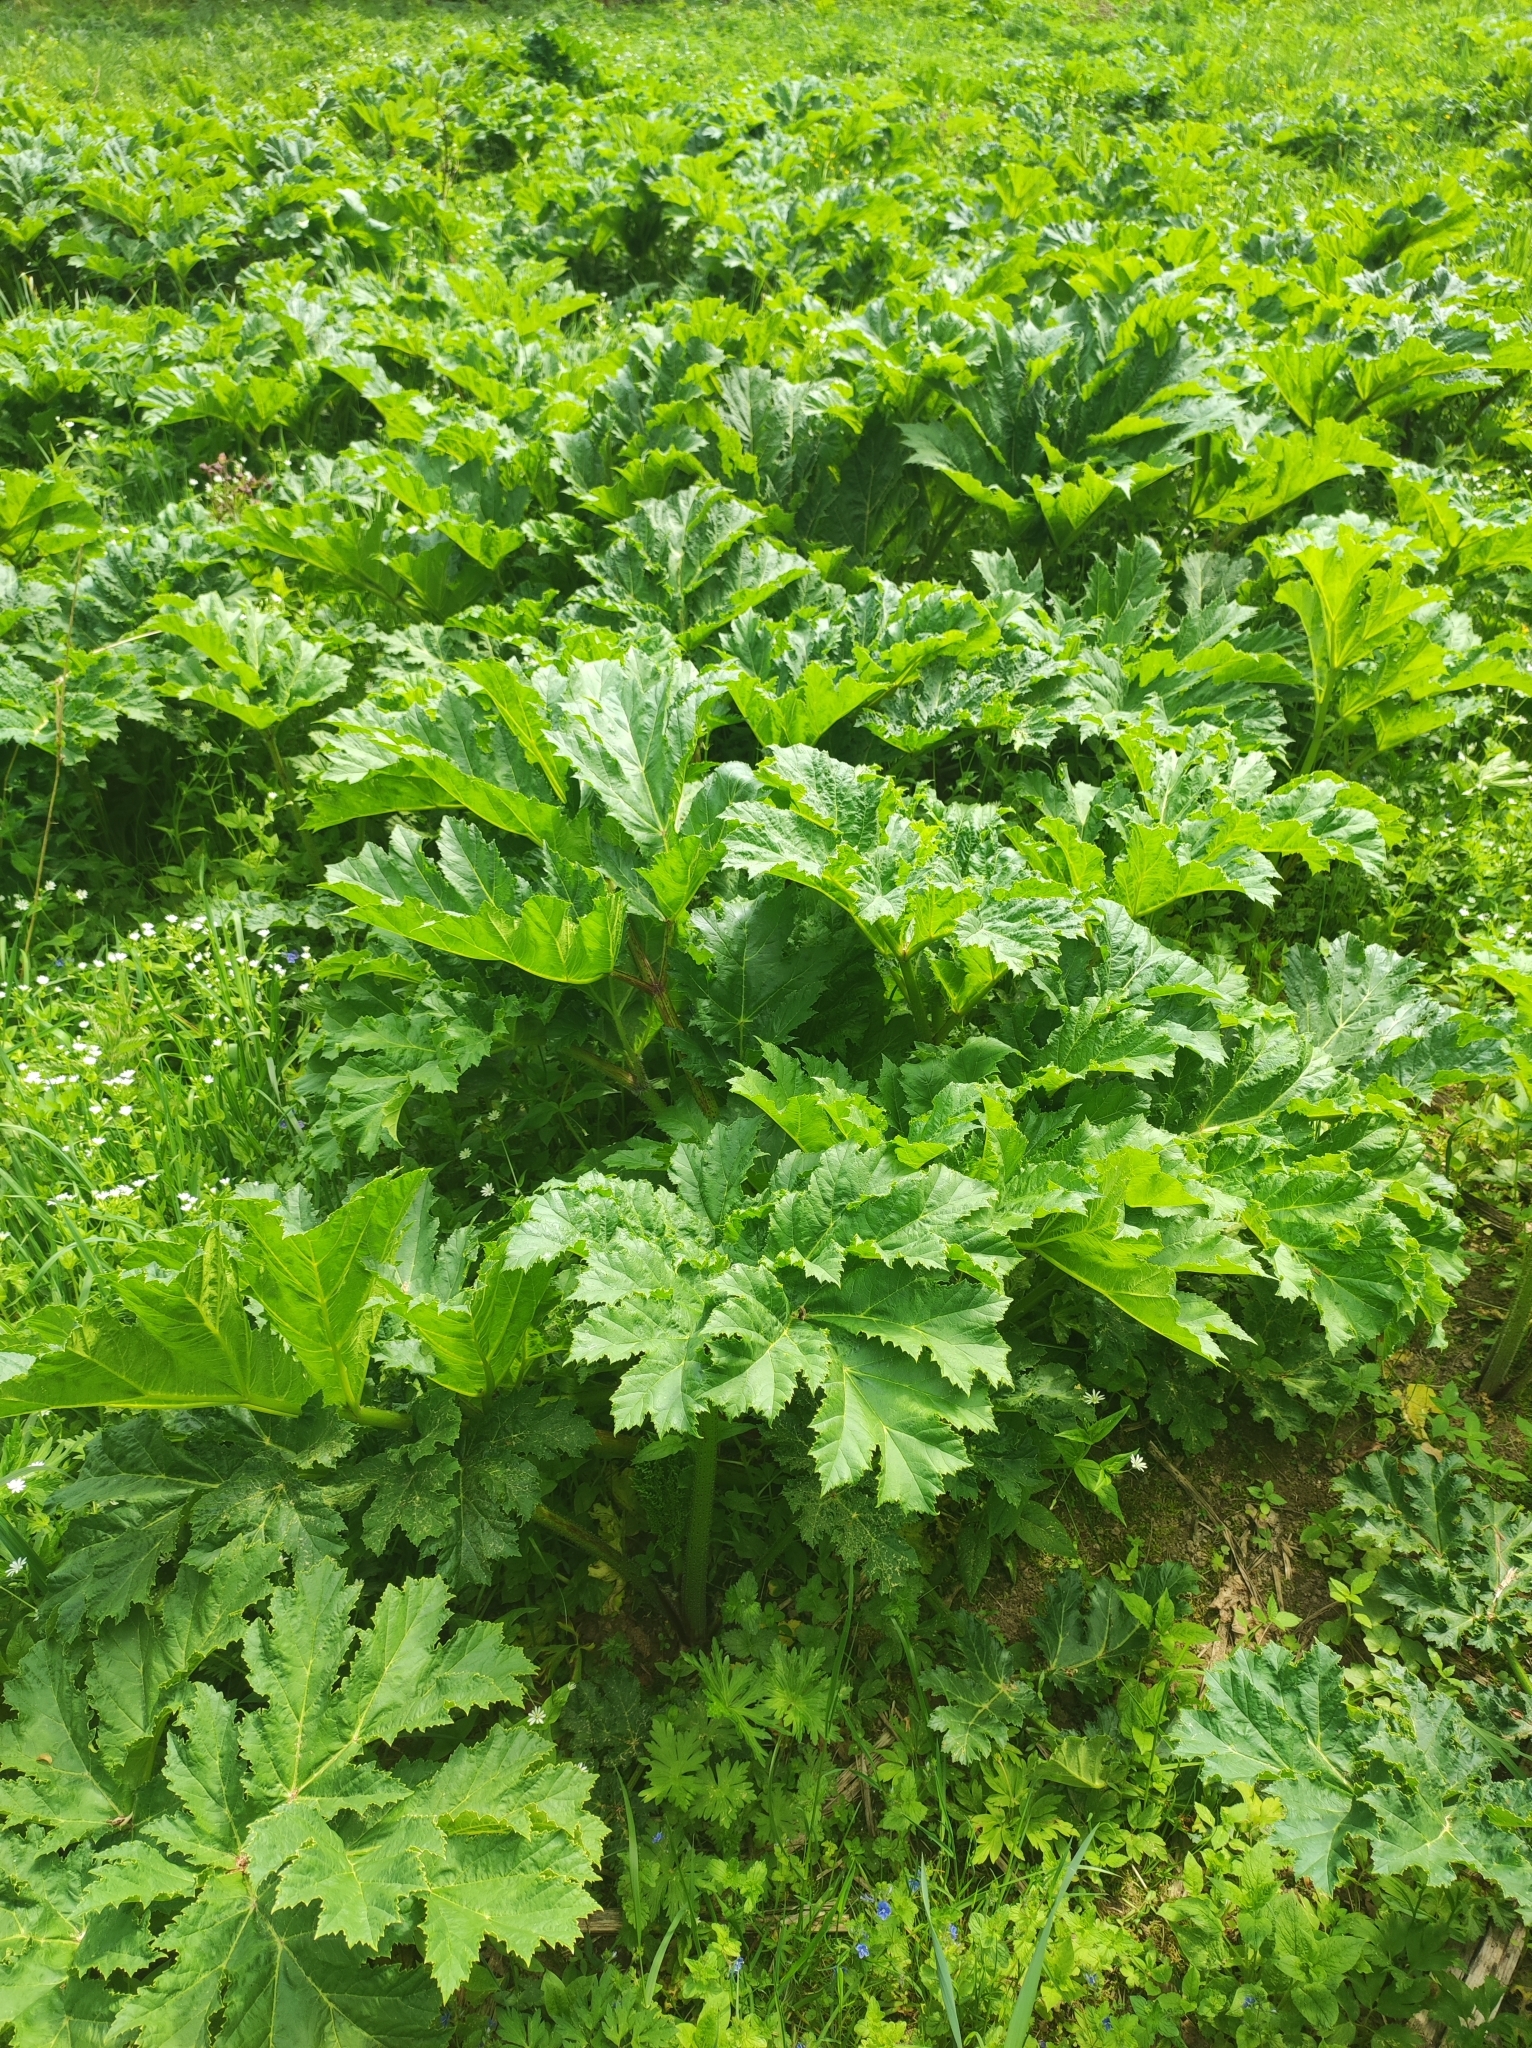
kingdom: Plantae
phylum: Tracheophyta
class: Magnoliopsida
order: Apiales
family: Apiaceae
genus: Heracleum
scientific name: Heracleum sosnowskyi
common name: Sosnowsky's hogweed
